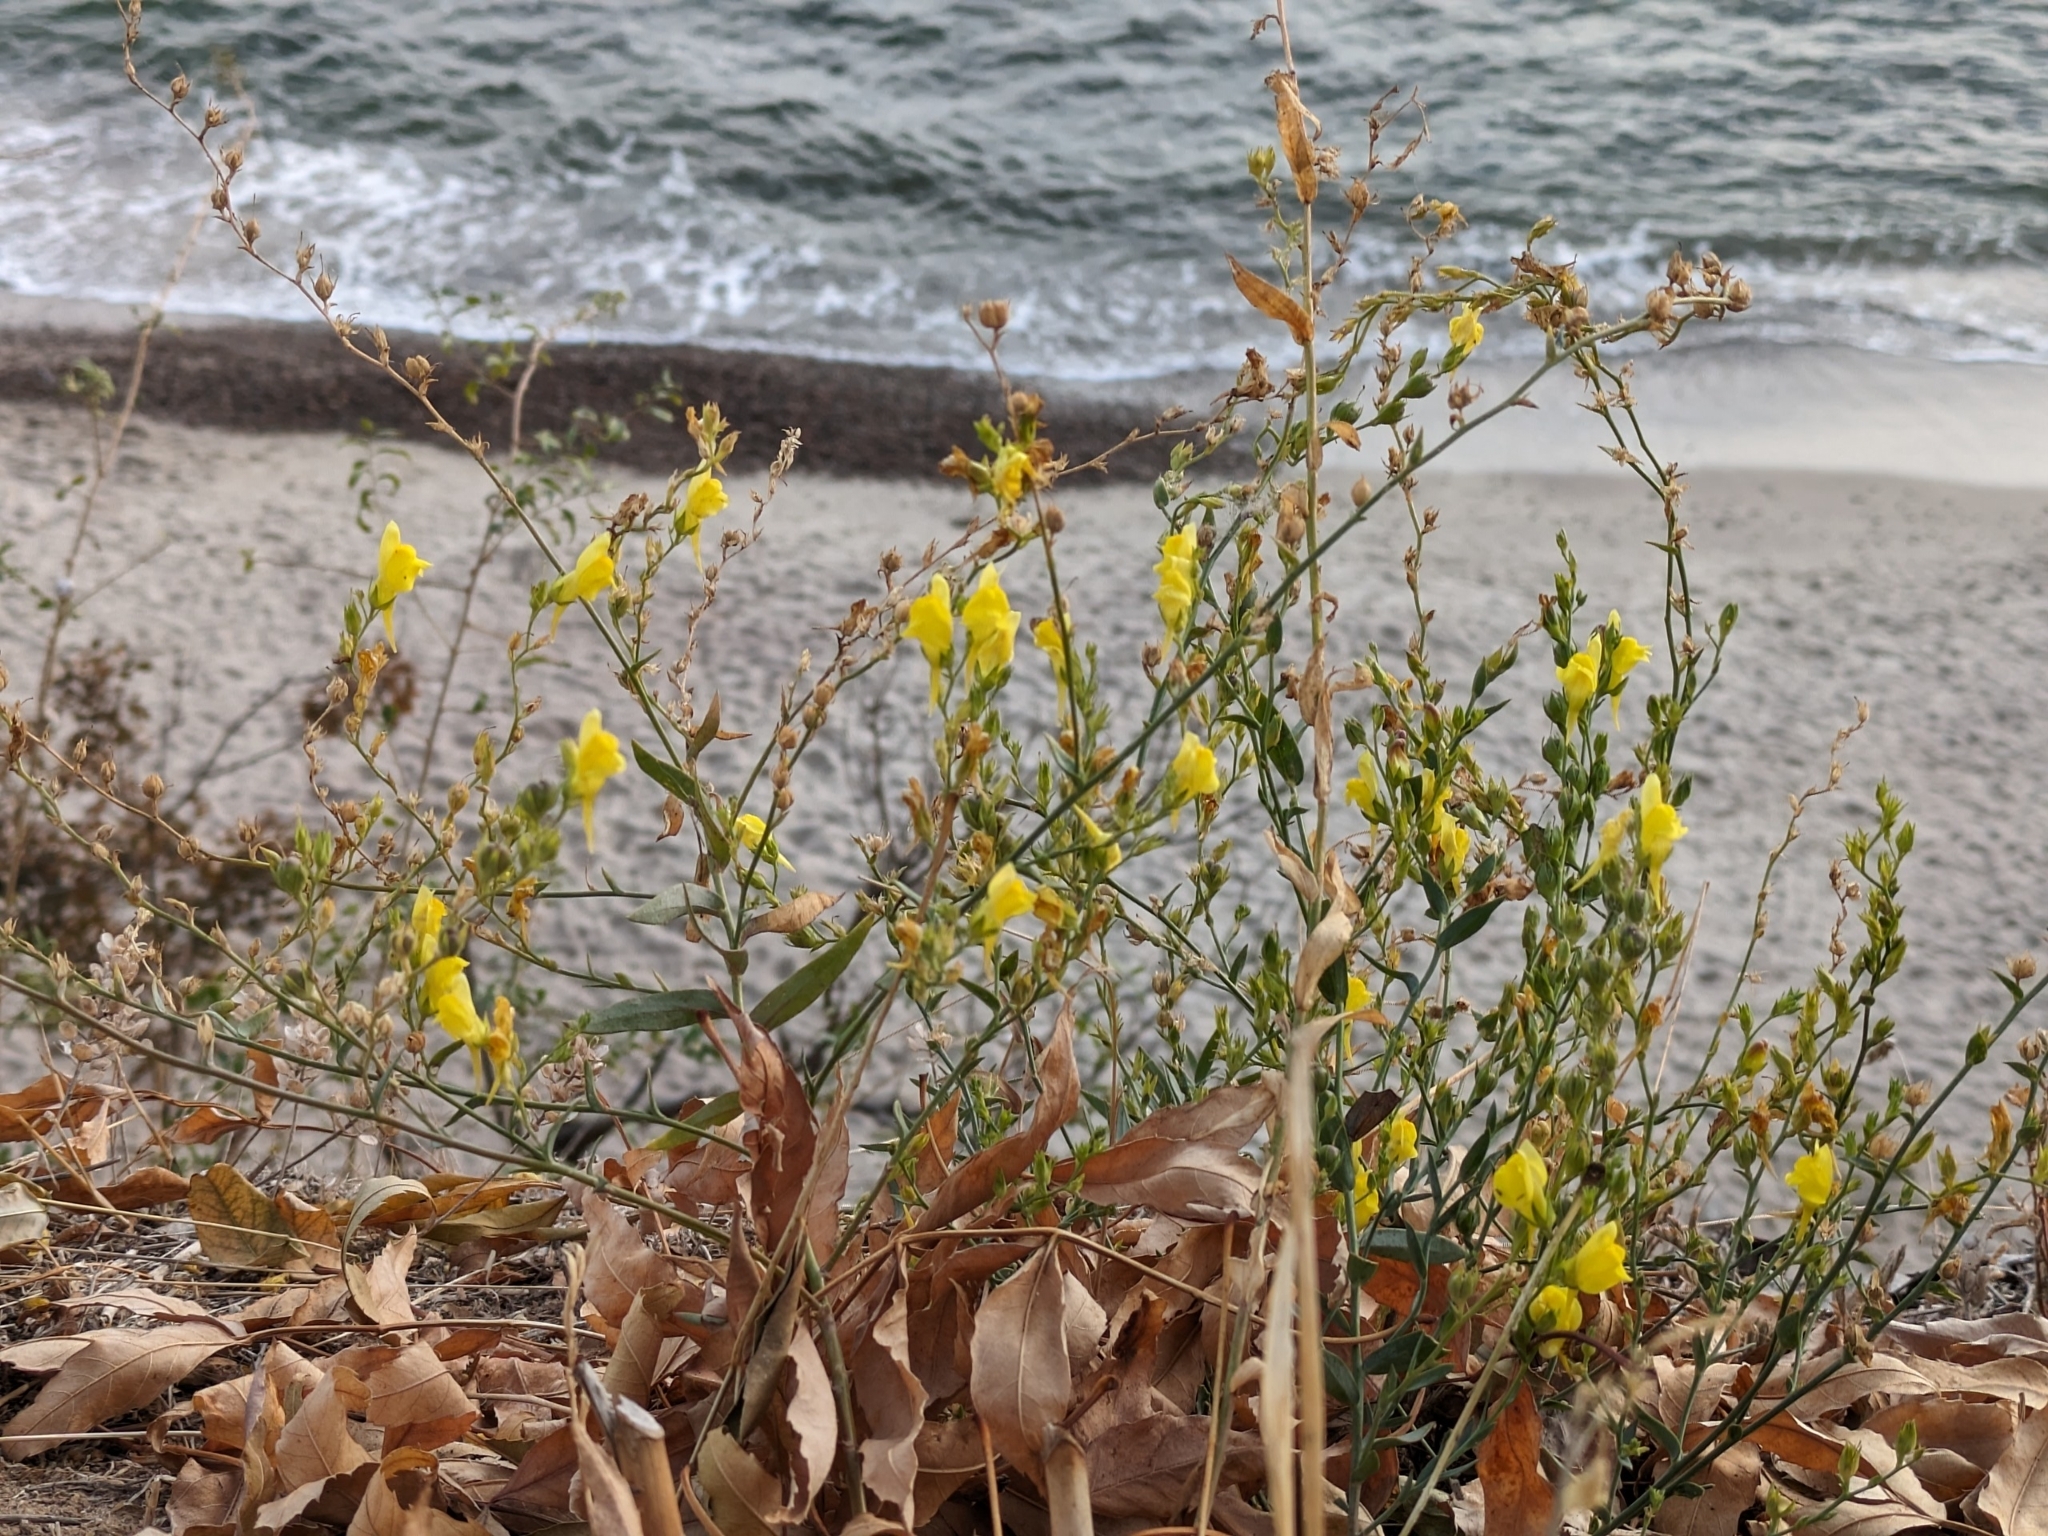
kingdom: Plantae
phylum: Tracheophyta
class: Magnoliopsida
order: Lamiales
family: Plantaginaceae
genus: Linaria
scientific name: Linaria genistifolia
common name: Broomleaf toadflax
